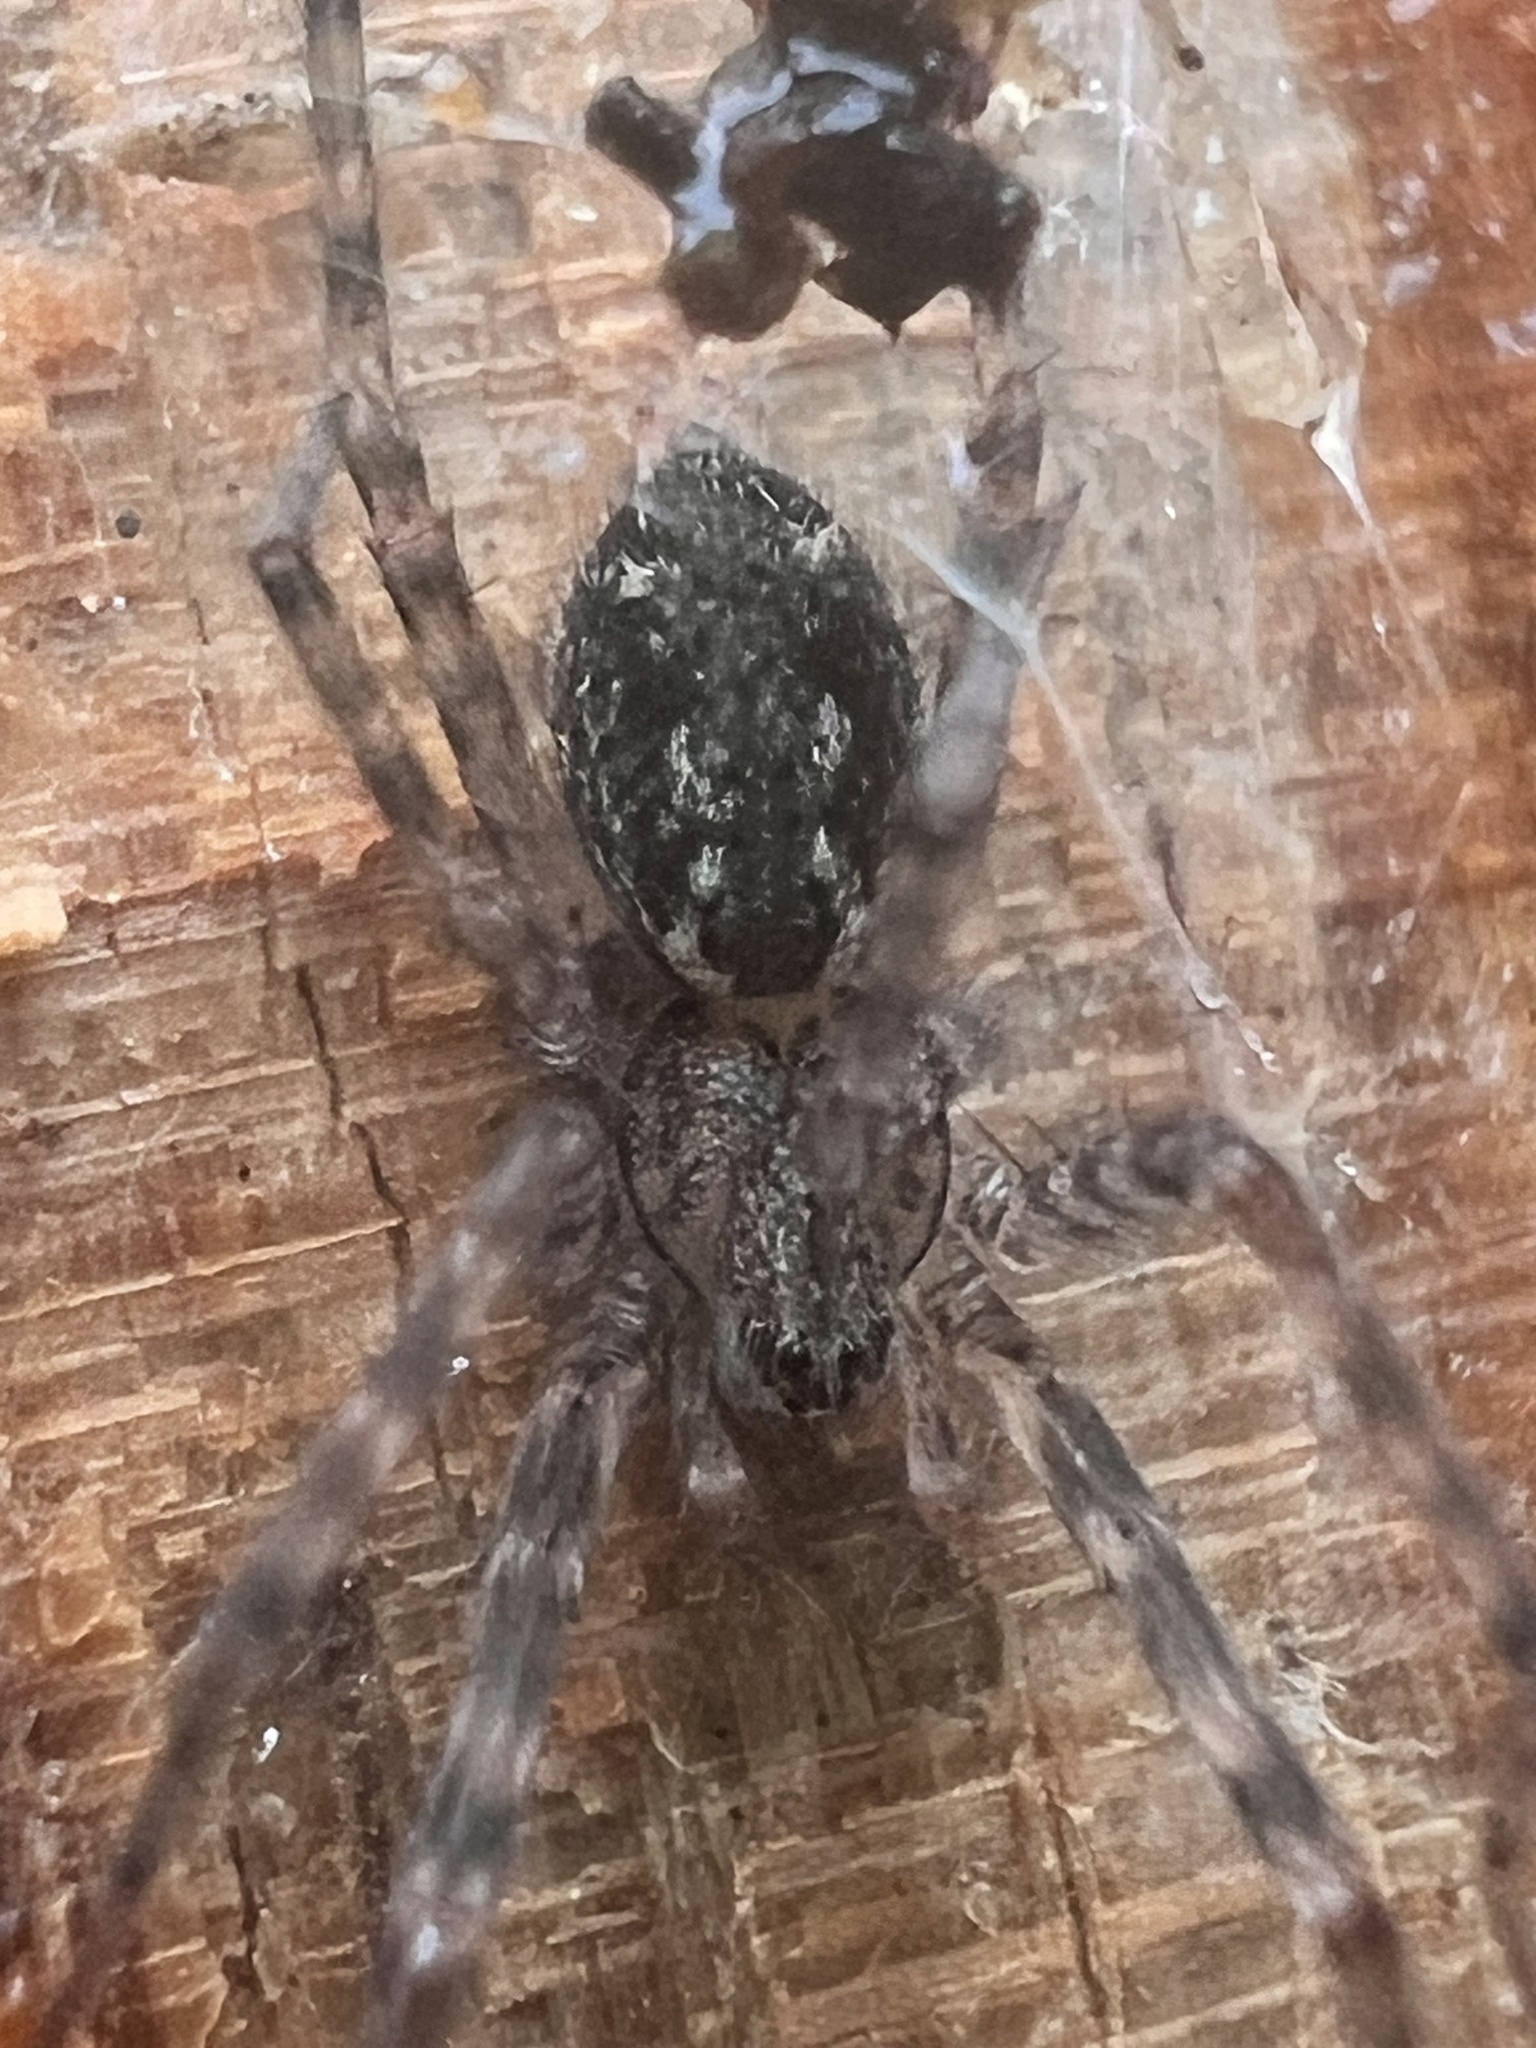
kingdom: Animalia
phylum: Arthropoda
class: Arachnida
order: Araneae
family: Stiphidiidae
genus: Stiphidion
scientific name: Stiphidion facetum
